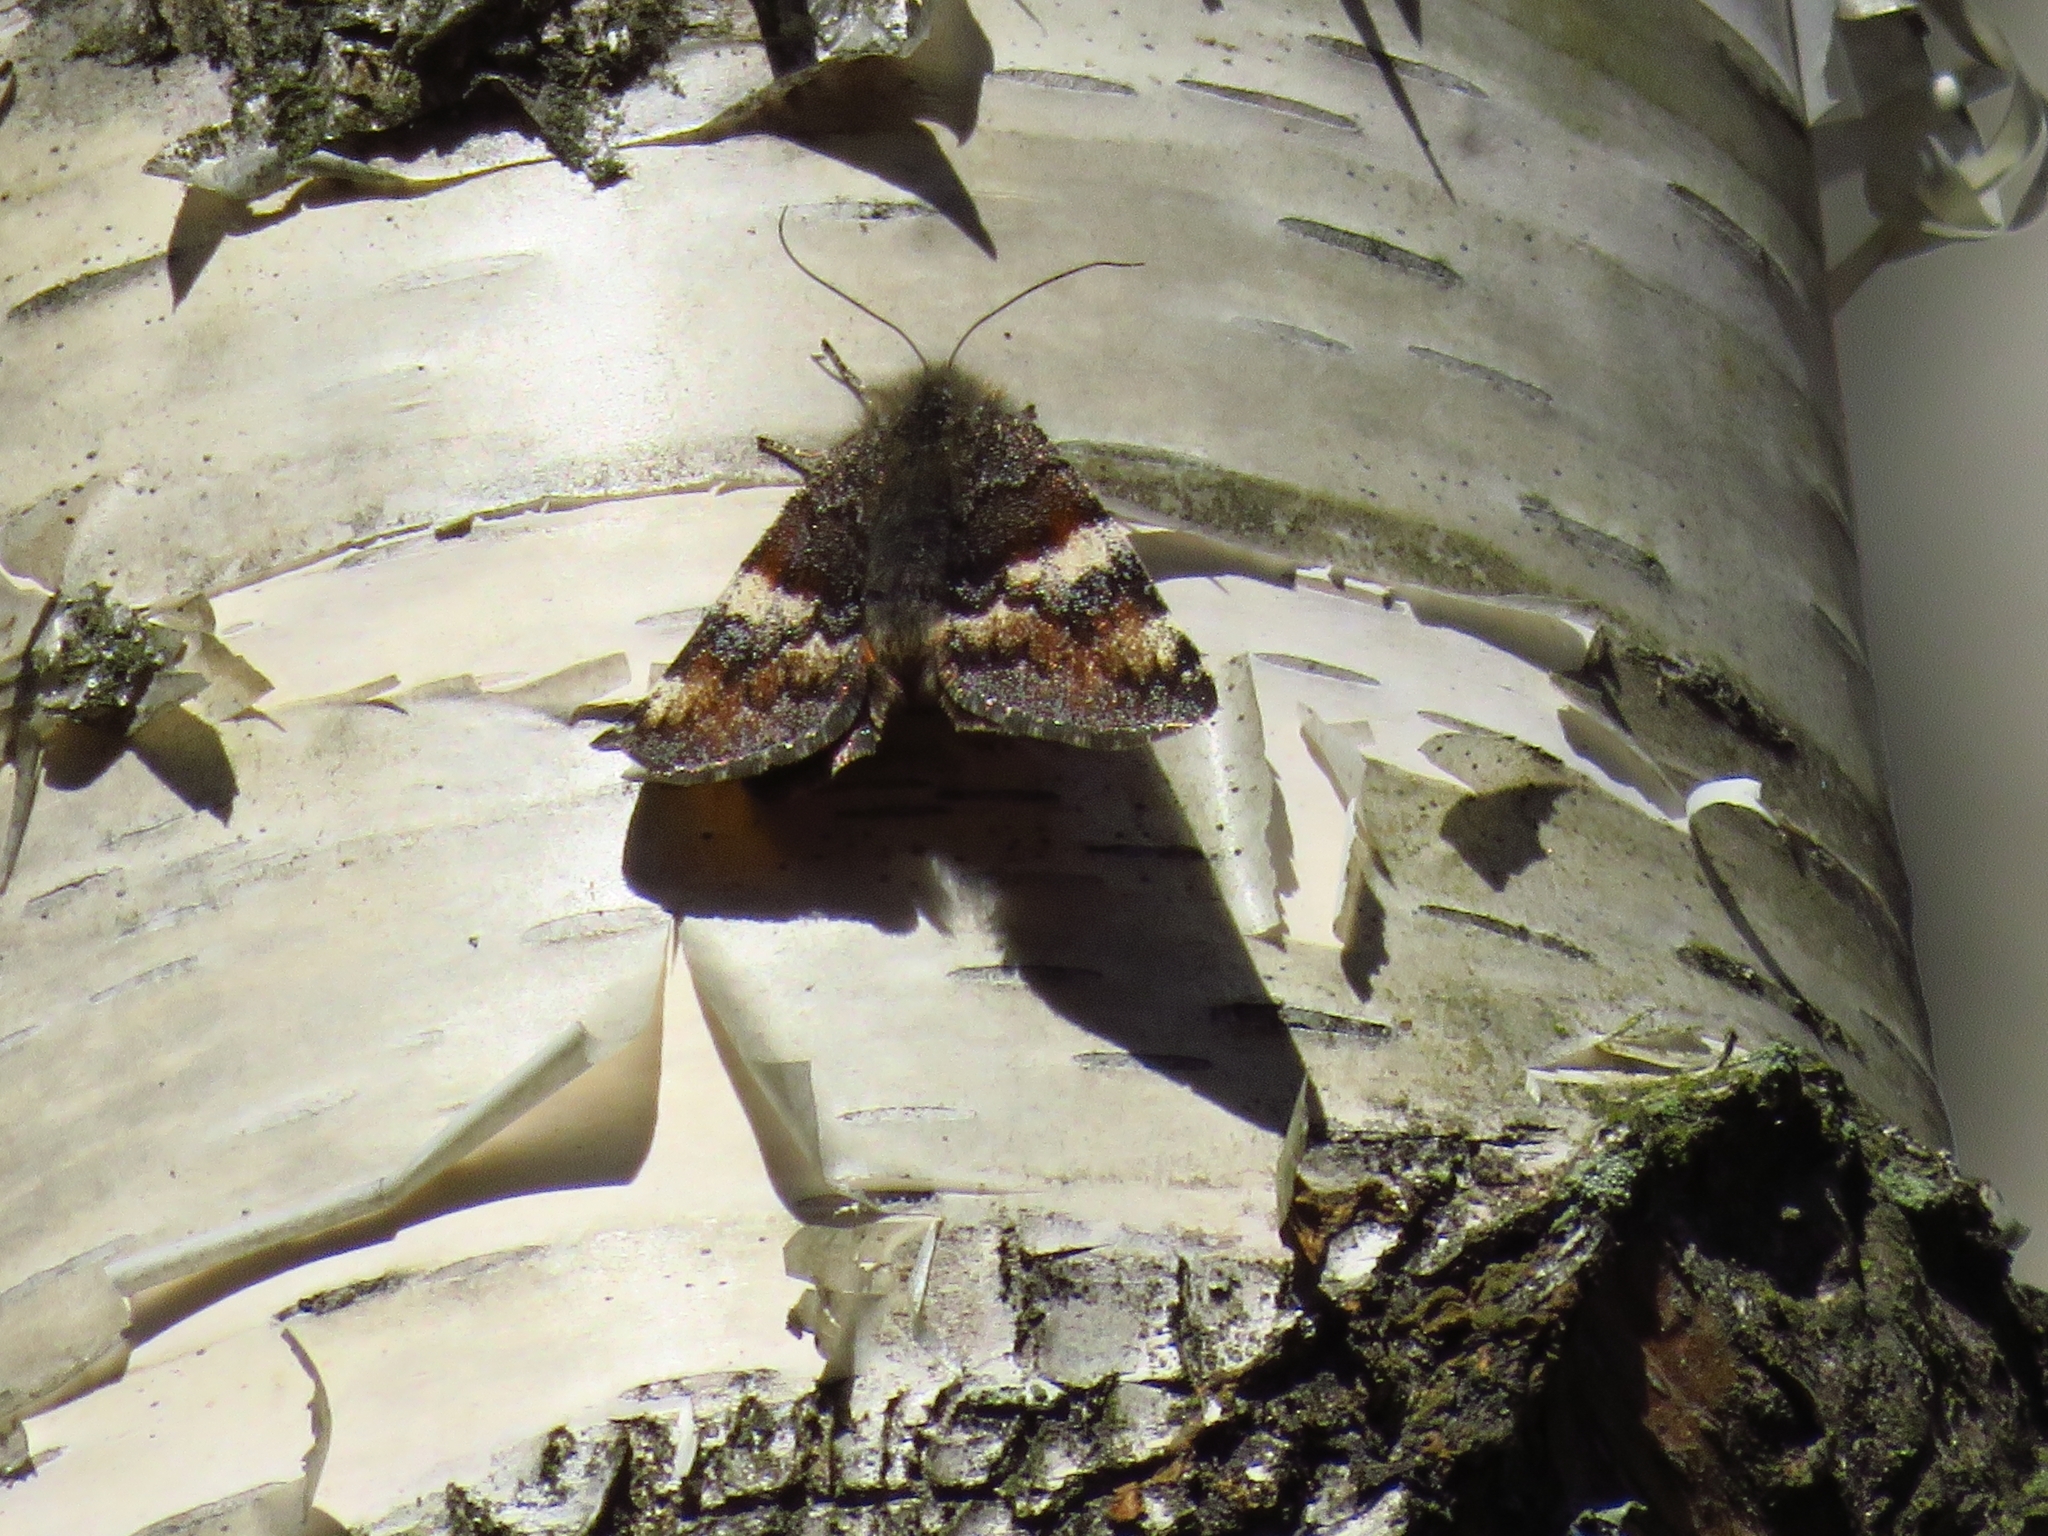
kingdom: Animalia
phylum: Arthropoda
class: Insecta
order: Lepidoptera
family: Geometridae
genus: Archiearis
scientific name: Archiearis parthenias
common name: Orange underwing
